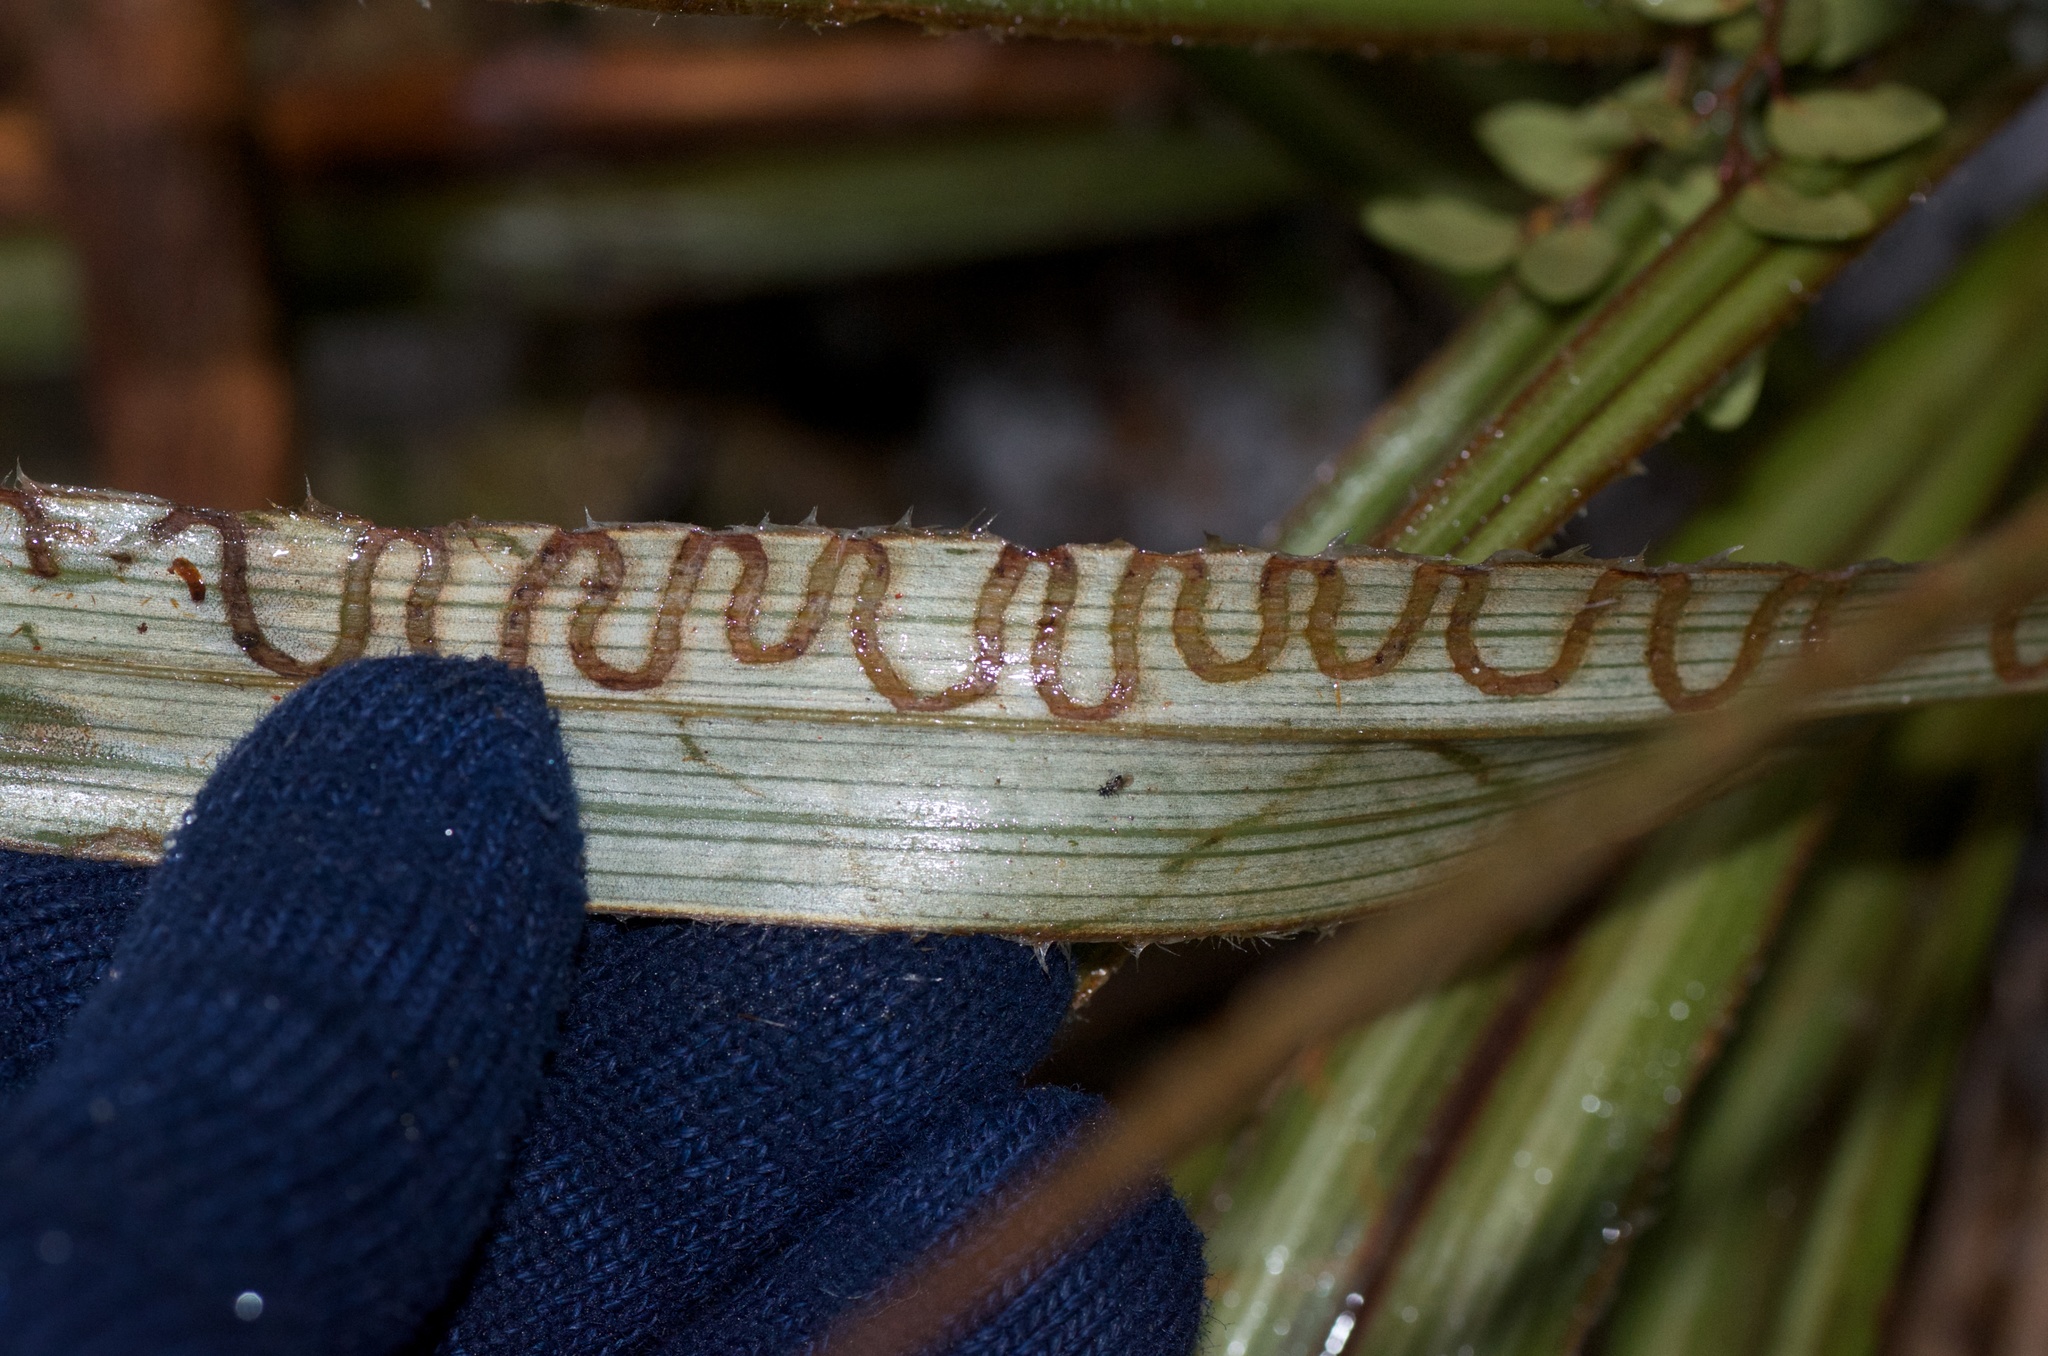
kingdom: Animalia
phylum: Arthropoda
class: Insecta
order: Lepidoptera
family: Plutellidae
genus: Charixena
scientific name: Charixena iridoxa
